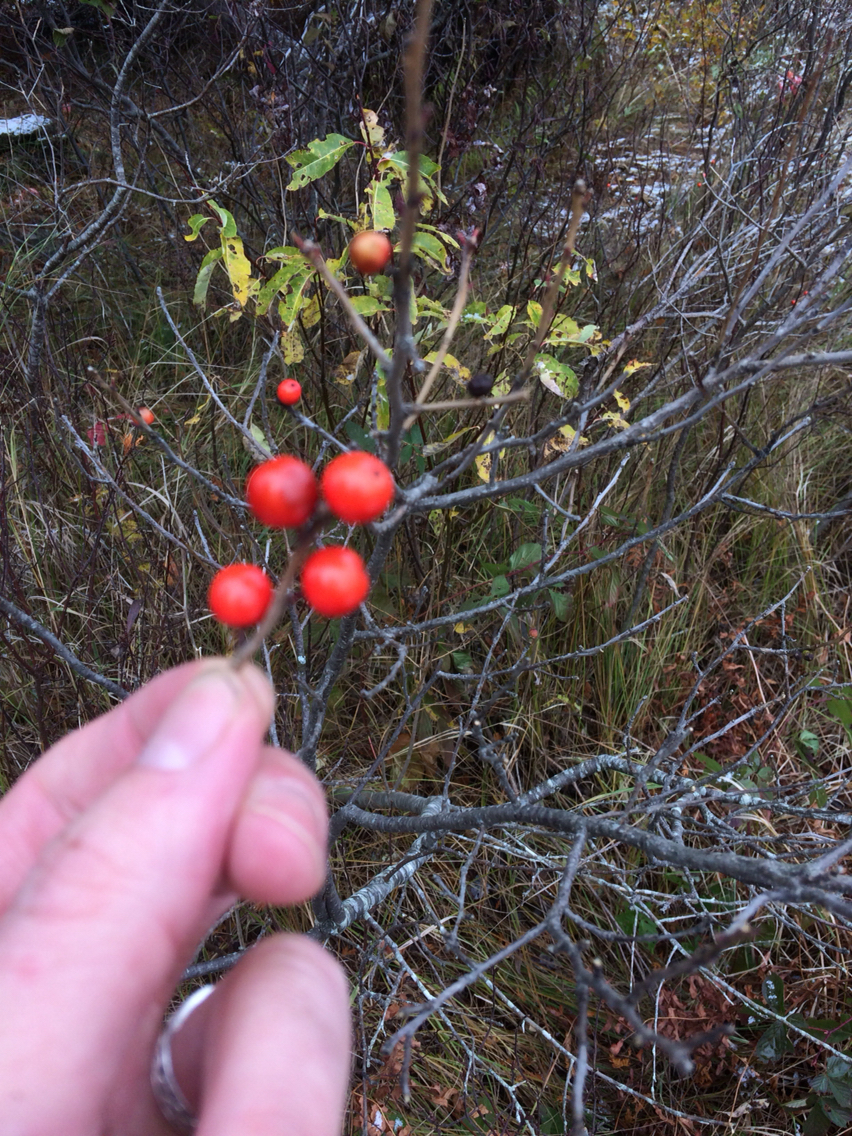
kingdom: Plantae
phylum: Tracheophyta
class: Magnoliopsida
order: Aquifoliales
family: Aquifoliaceae
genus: Ilex
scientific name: Ilex verticillata
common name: Virginia winterberry
